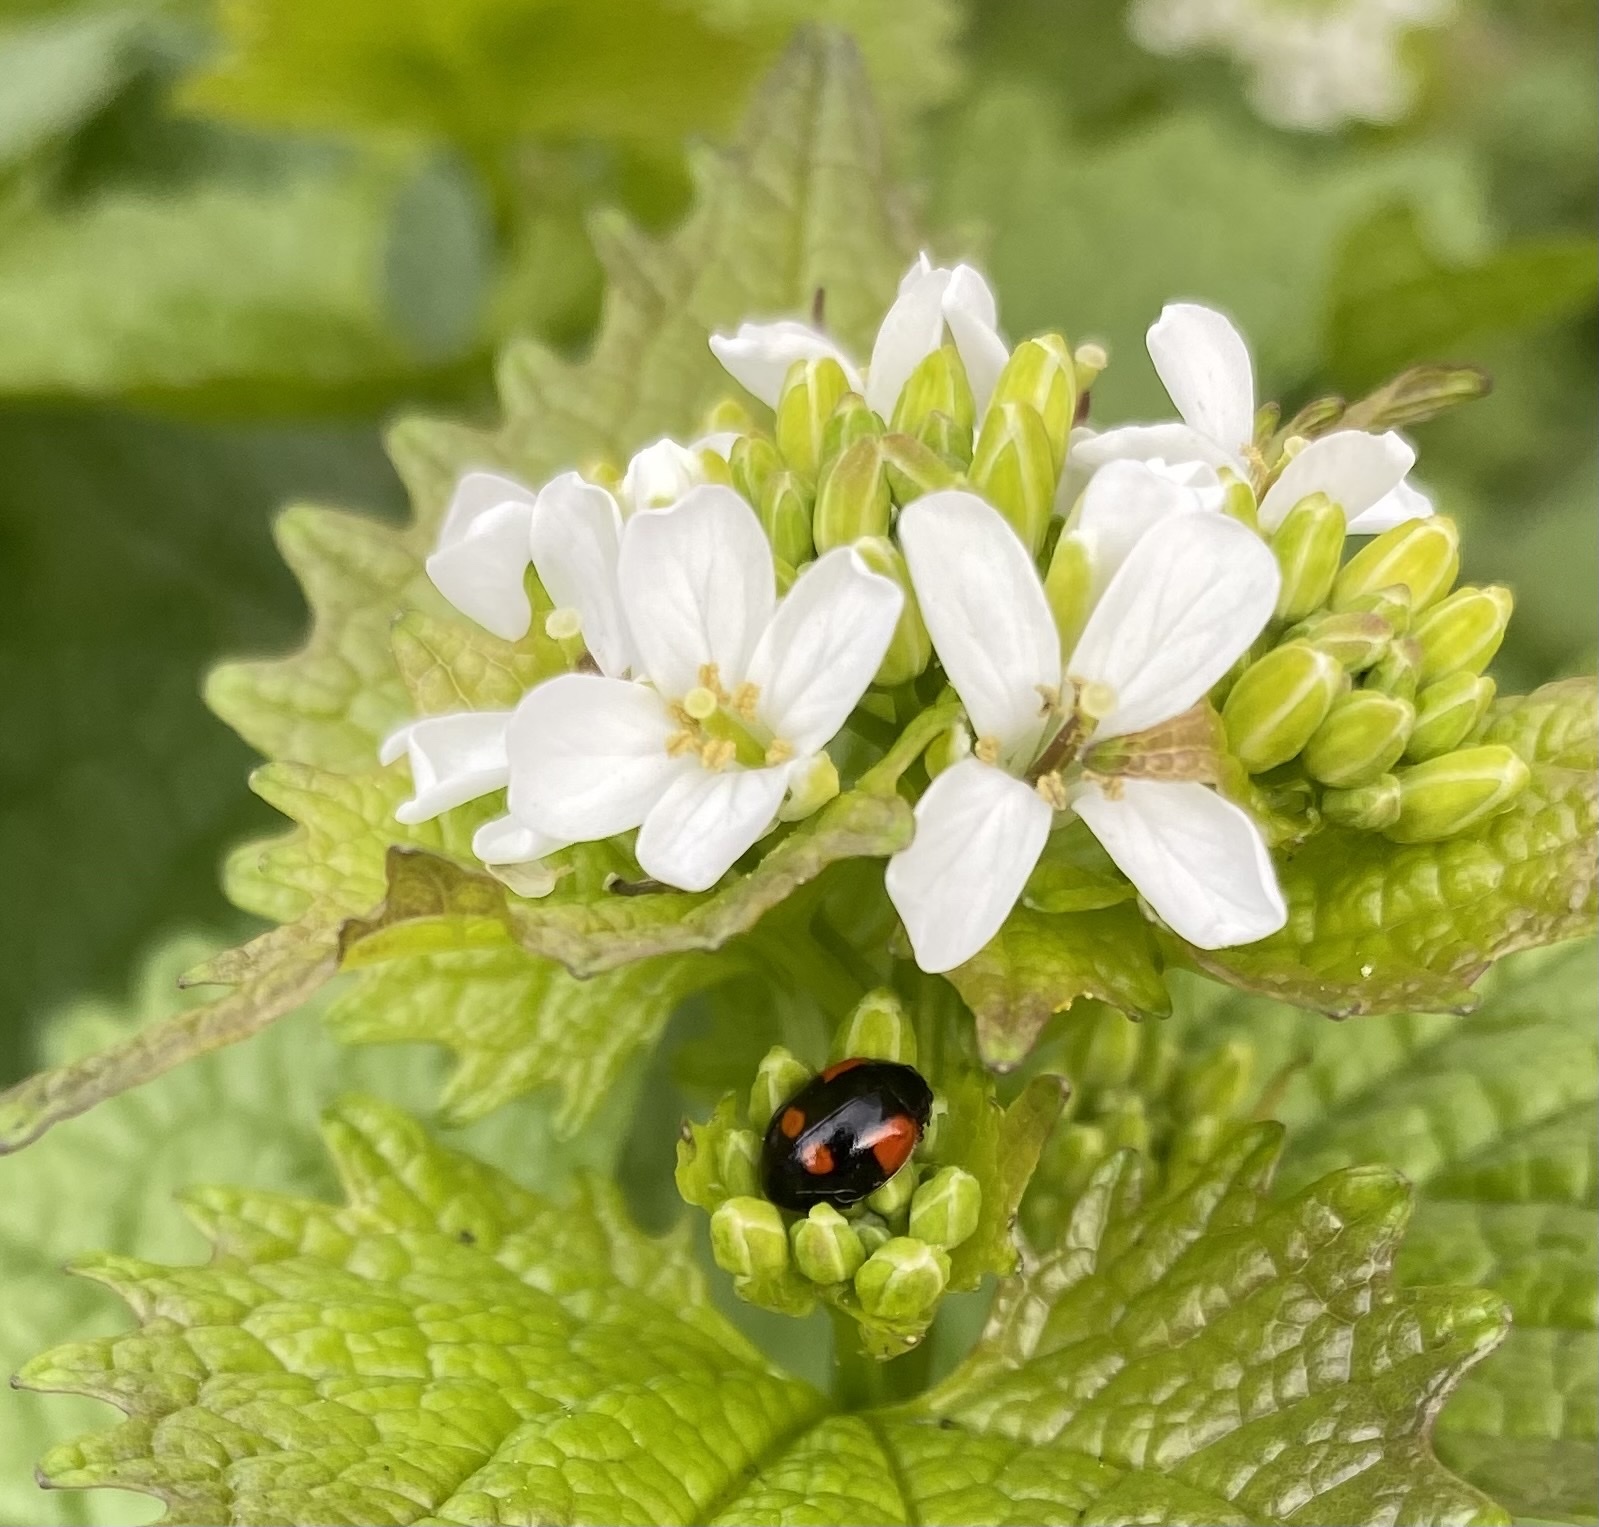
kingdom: Plantae
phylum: Tracheophyta
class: Magnoliopsida
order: Brassicales
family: Brassicaceae
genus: Alliaria
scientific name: Alliaria petiolata
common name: Garlic mustard
